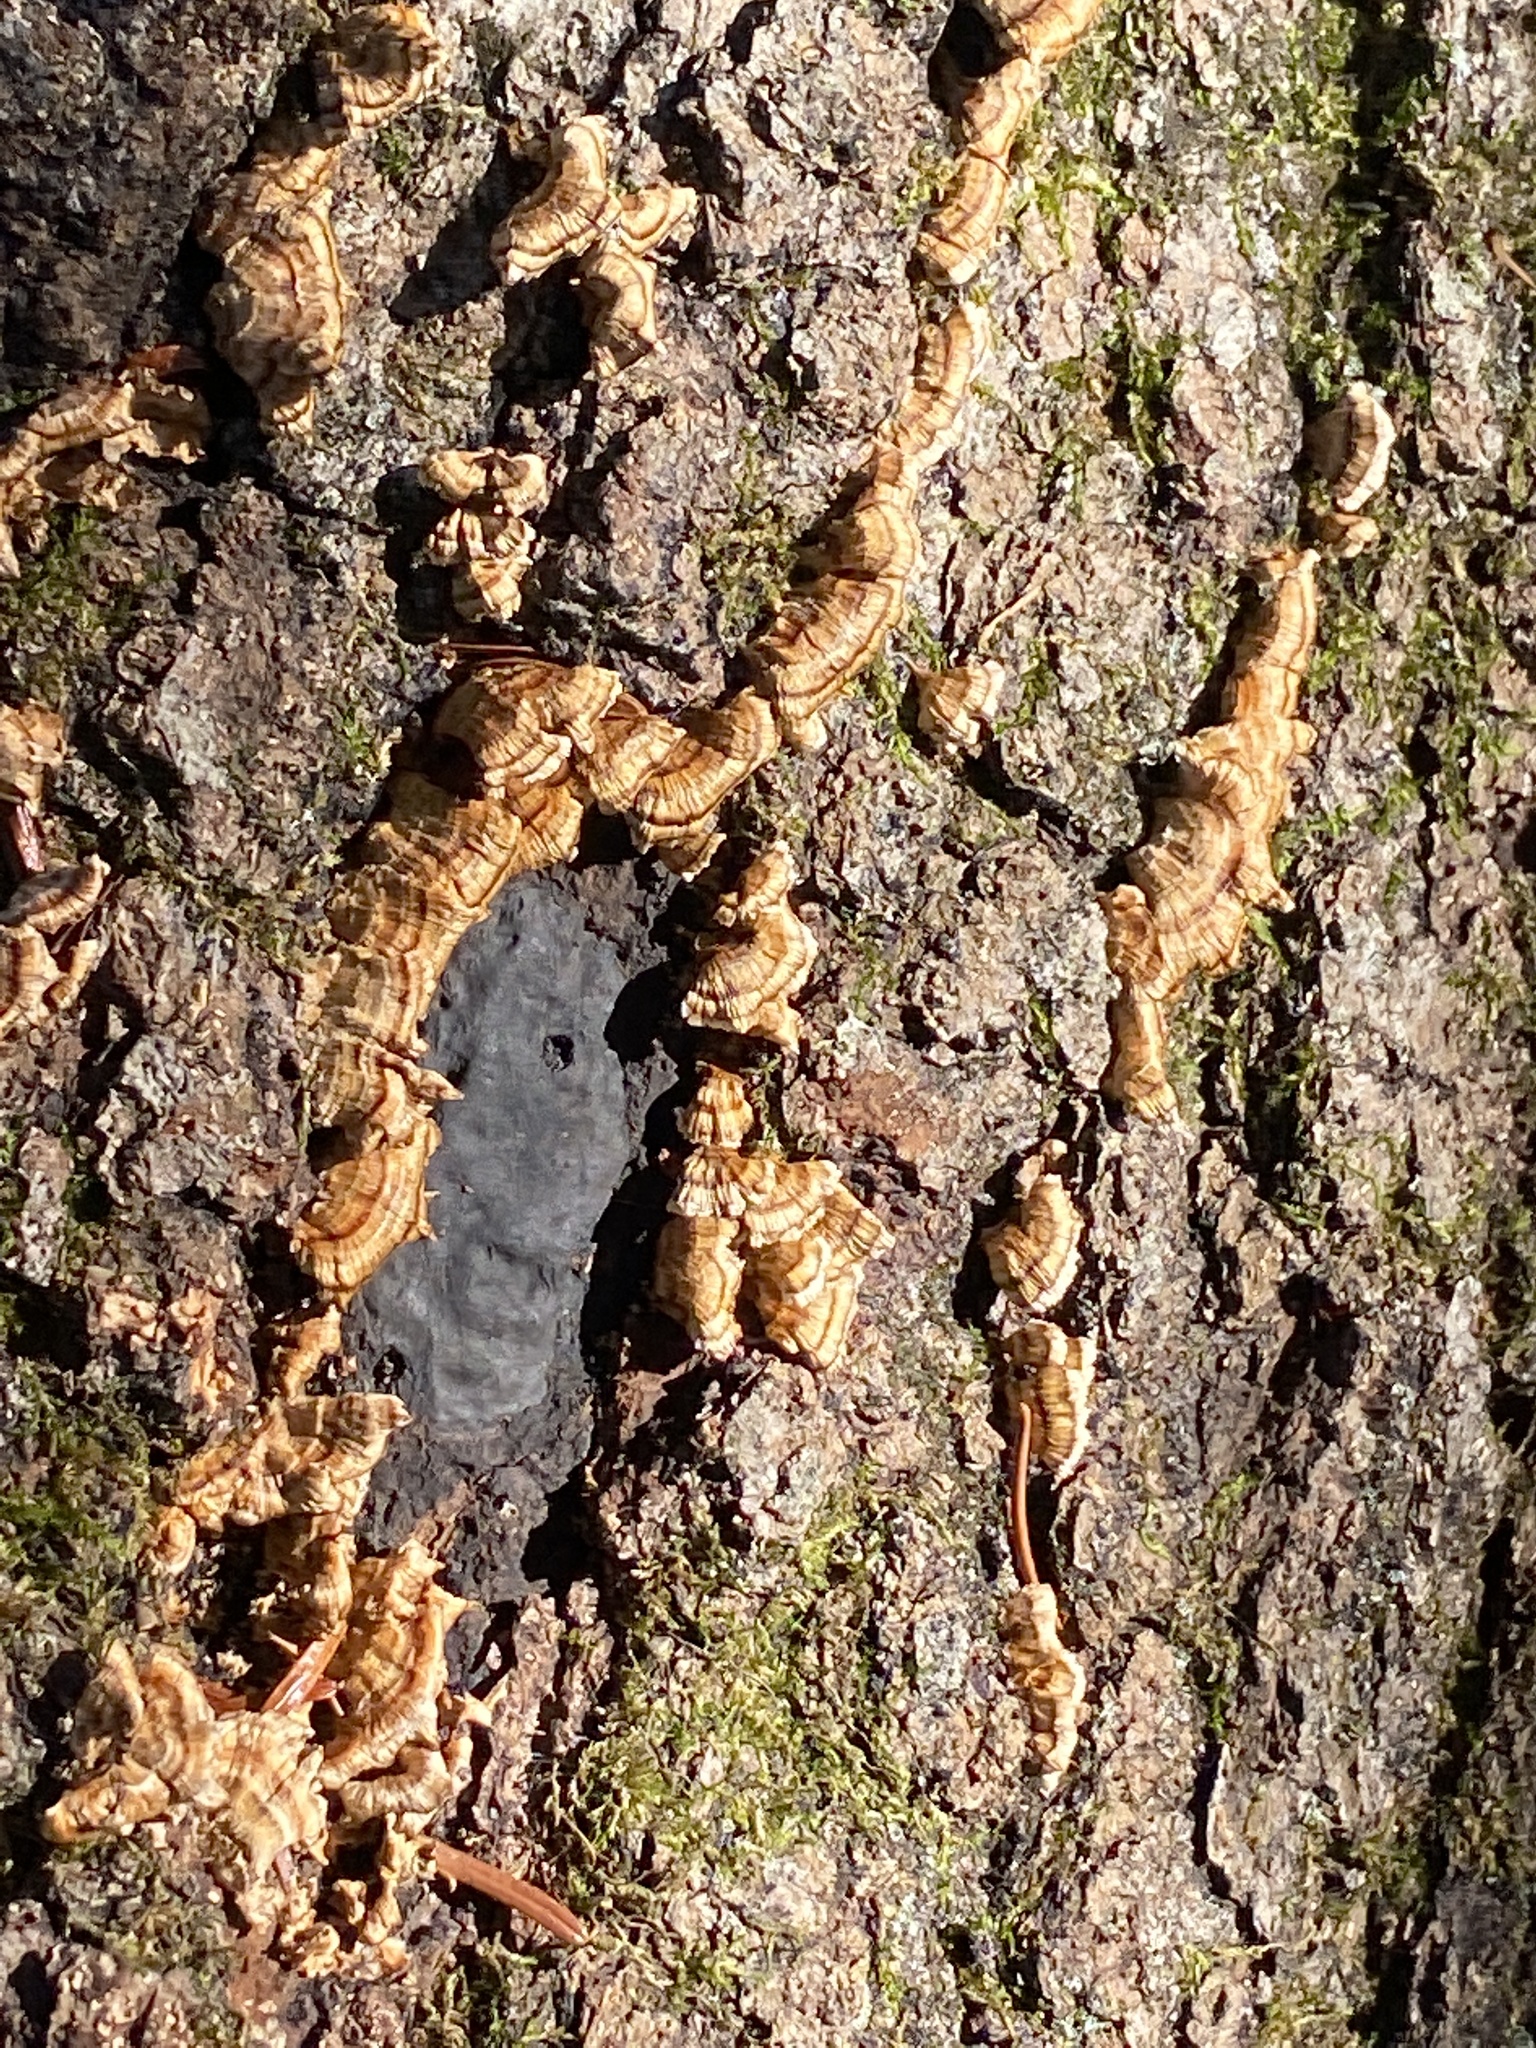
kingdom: Fungi
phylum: Basidiomycota
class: Agaricomycetes
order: Russulales
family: Stereaceae
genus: Stereum
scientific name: Stereum complicatum
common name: Crowded parchment
